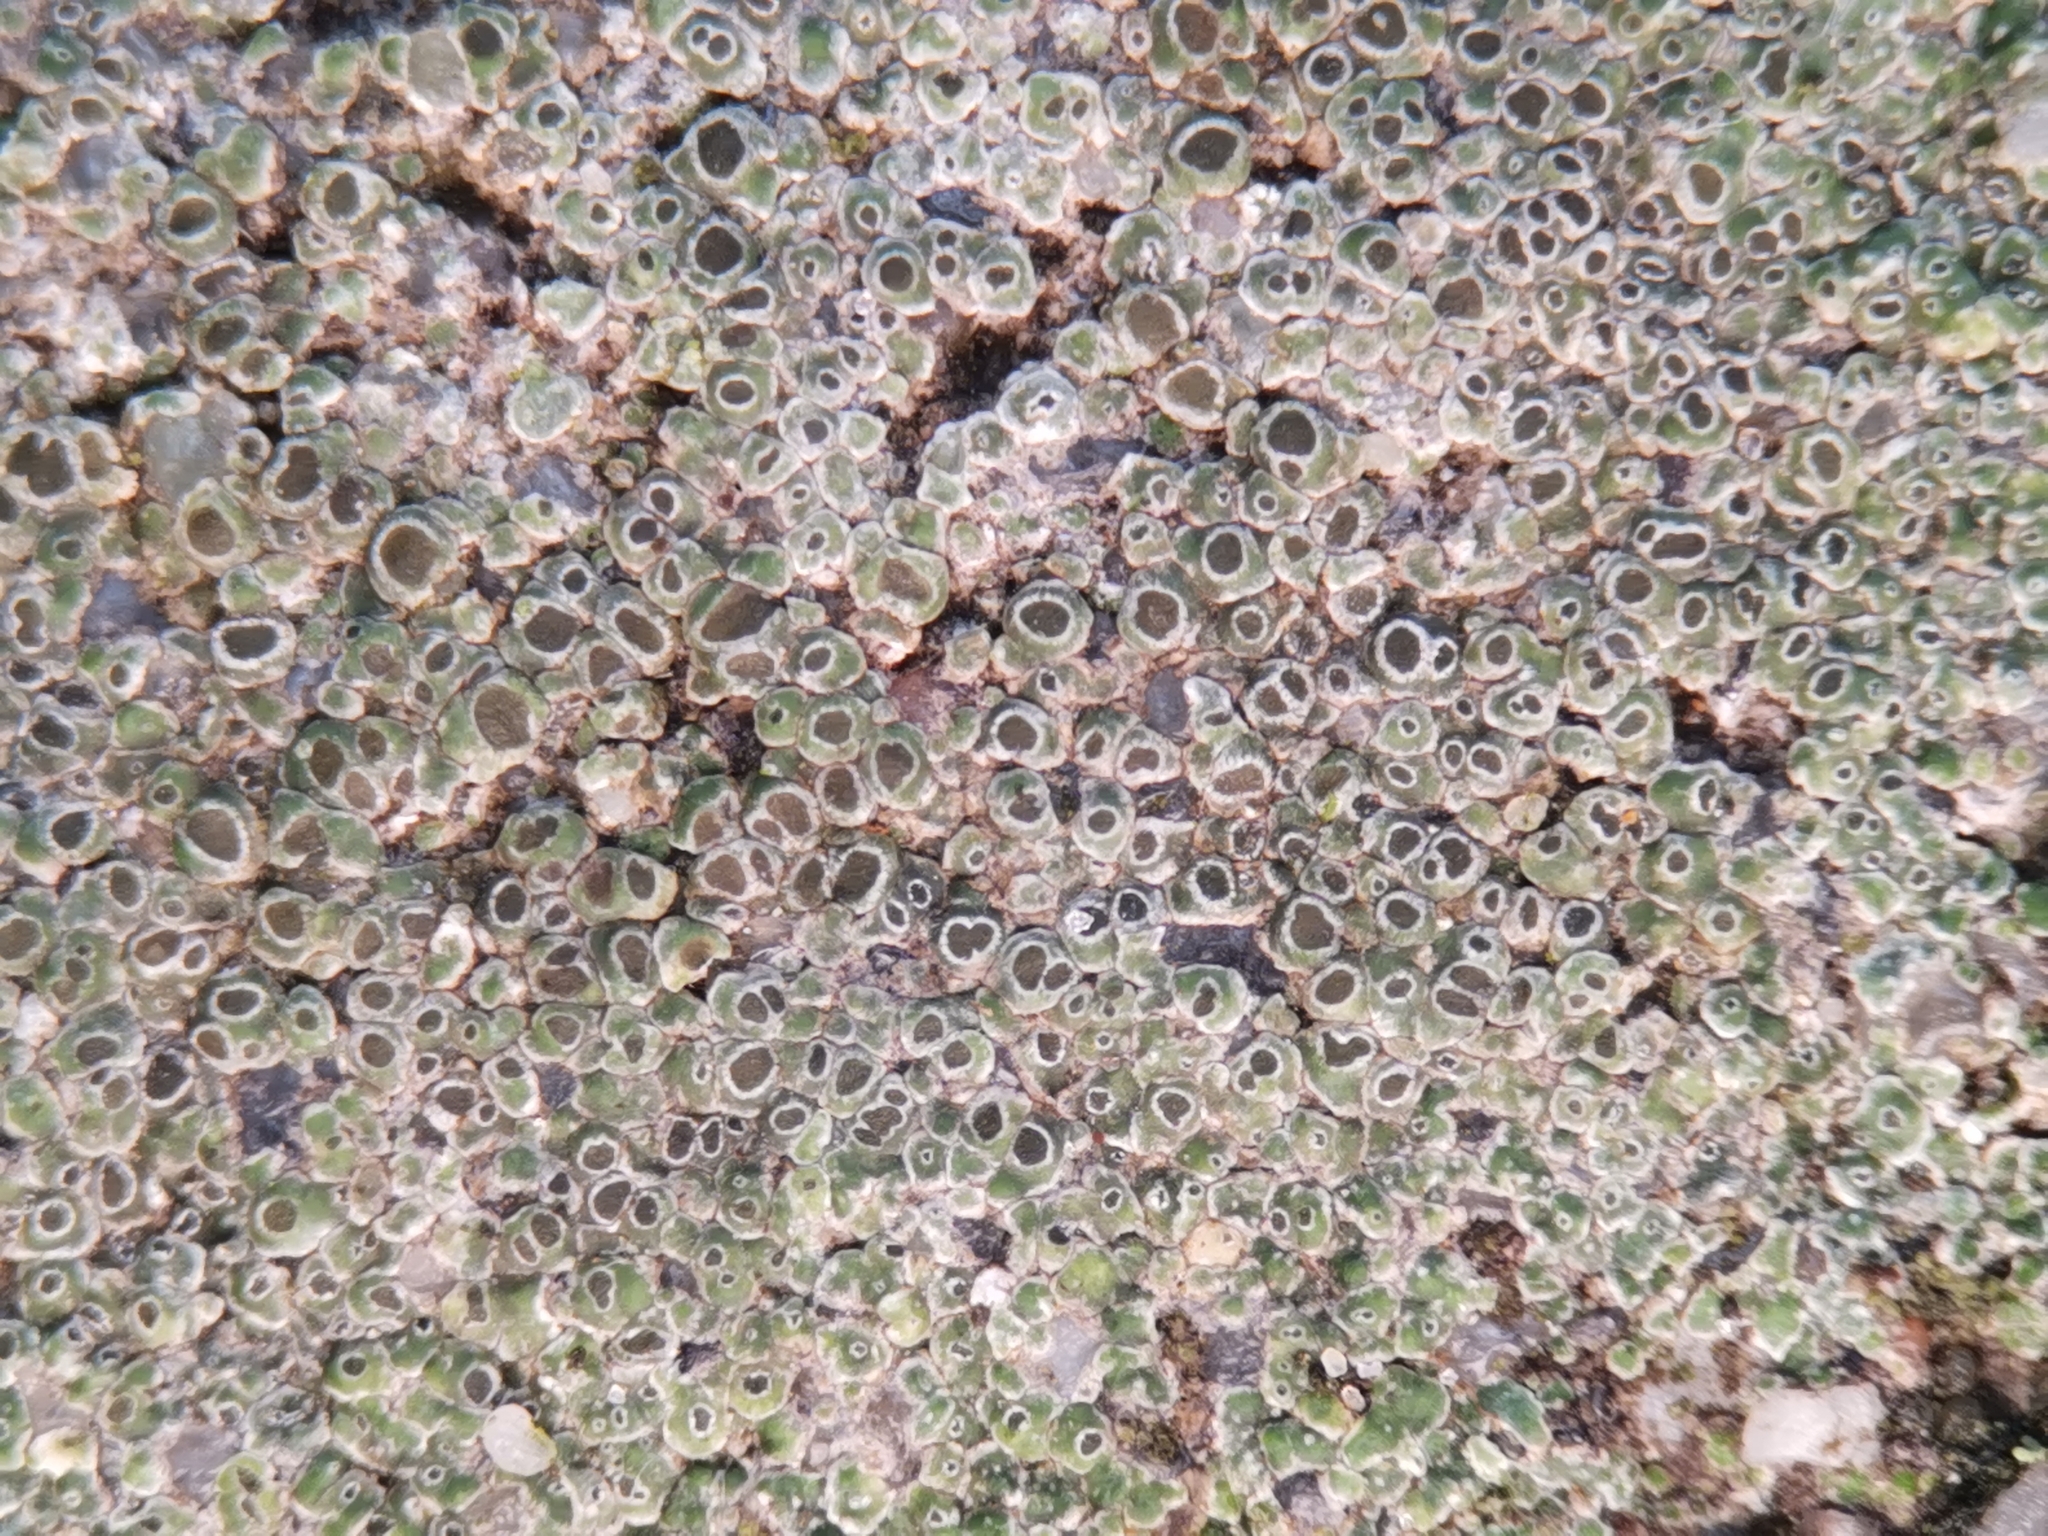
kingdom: Fungi
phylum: Ascomycota
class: Lecanoromycetes
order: Pertusariales
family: Megasporaceae
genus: Circinaria
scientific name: Circinaria contorta
